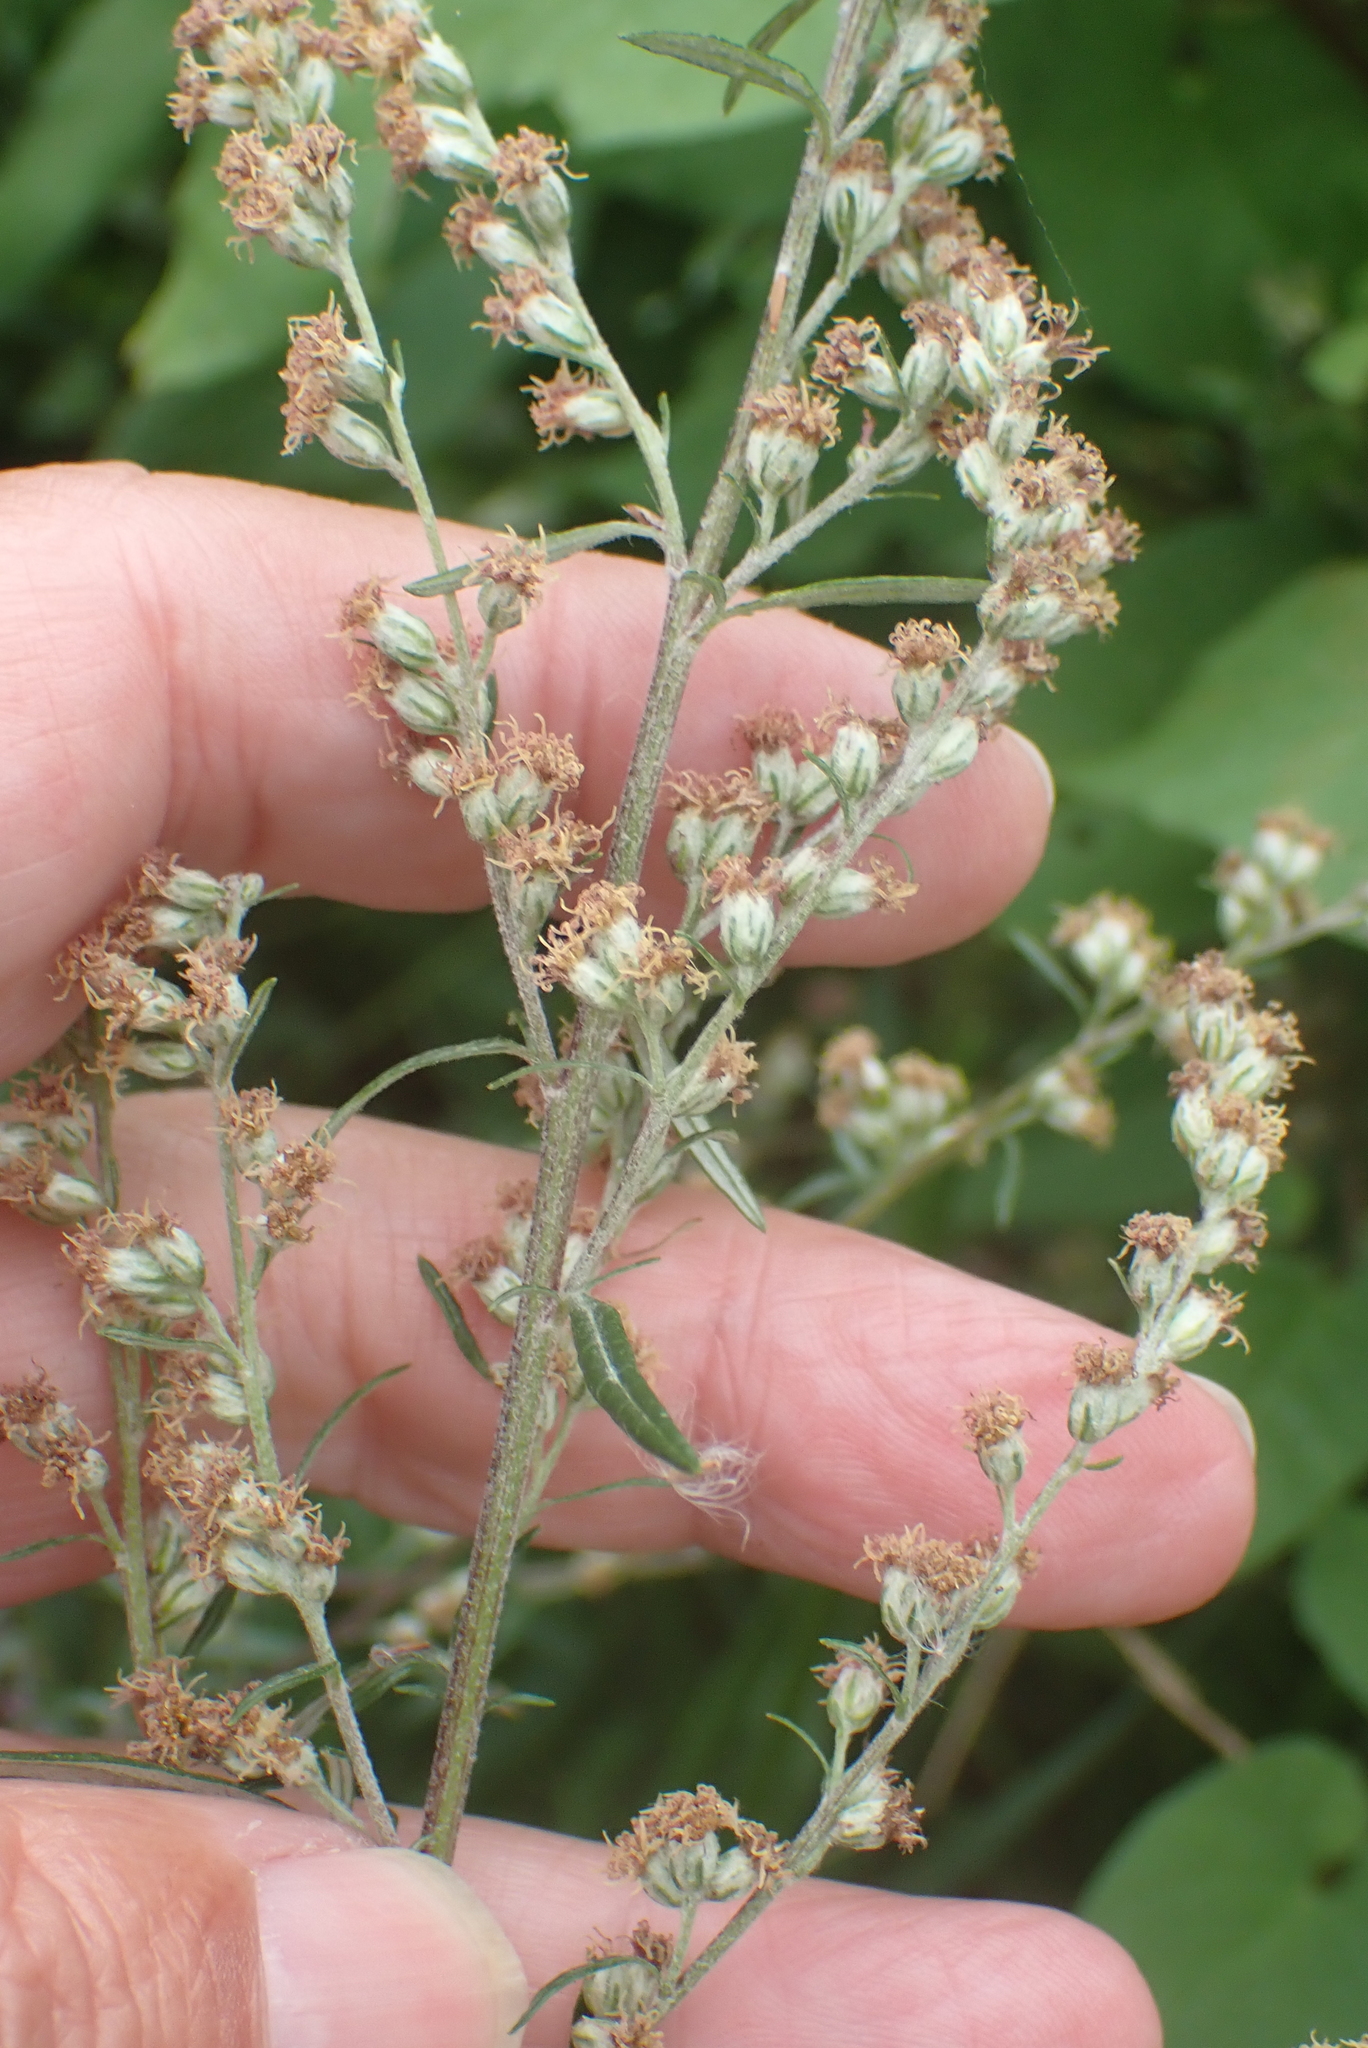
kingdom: Plantae
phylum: Tracheophyta
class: Magnoliopsida
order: Asterales
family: Asteraceae
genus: Artemisia
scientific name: Artemisia vulgaris
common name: Mugwort
